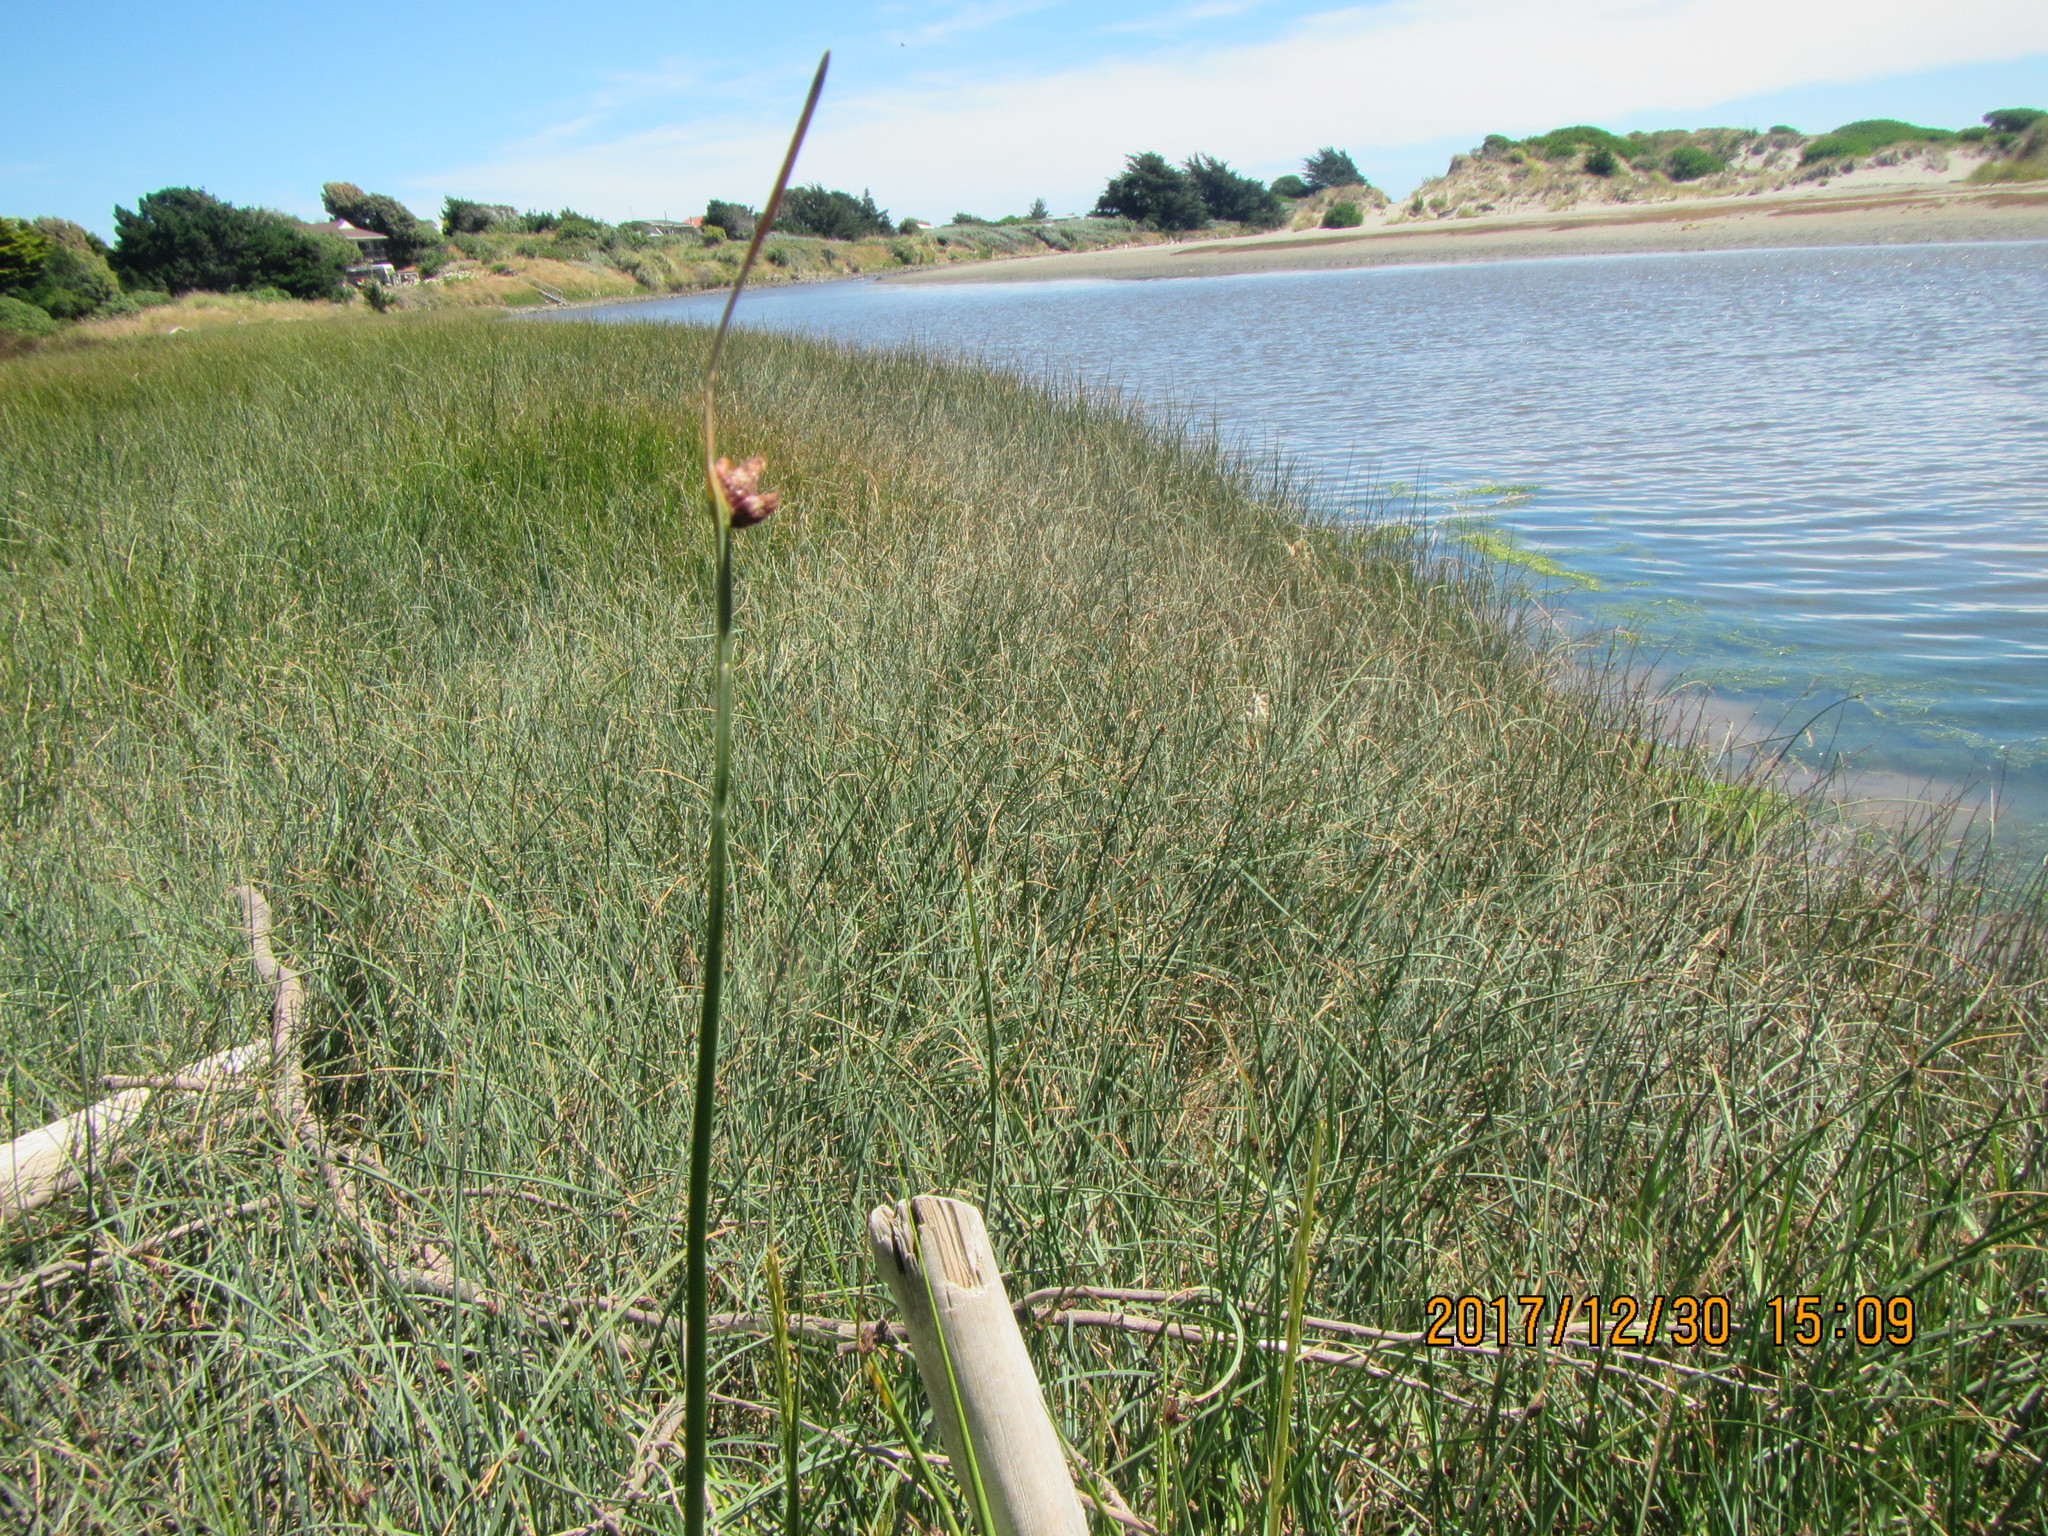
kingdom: Plantae
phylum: Tracheophyta
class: Liliopsida
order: Poales
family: Cyperaceae
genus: Schoenoplectus
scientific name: Schoenoplectus pungens
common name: Sharp club-rush
